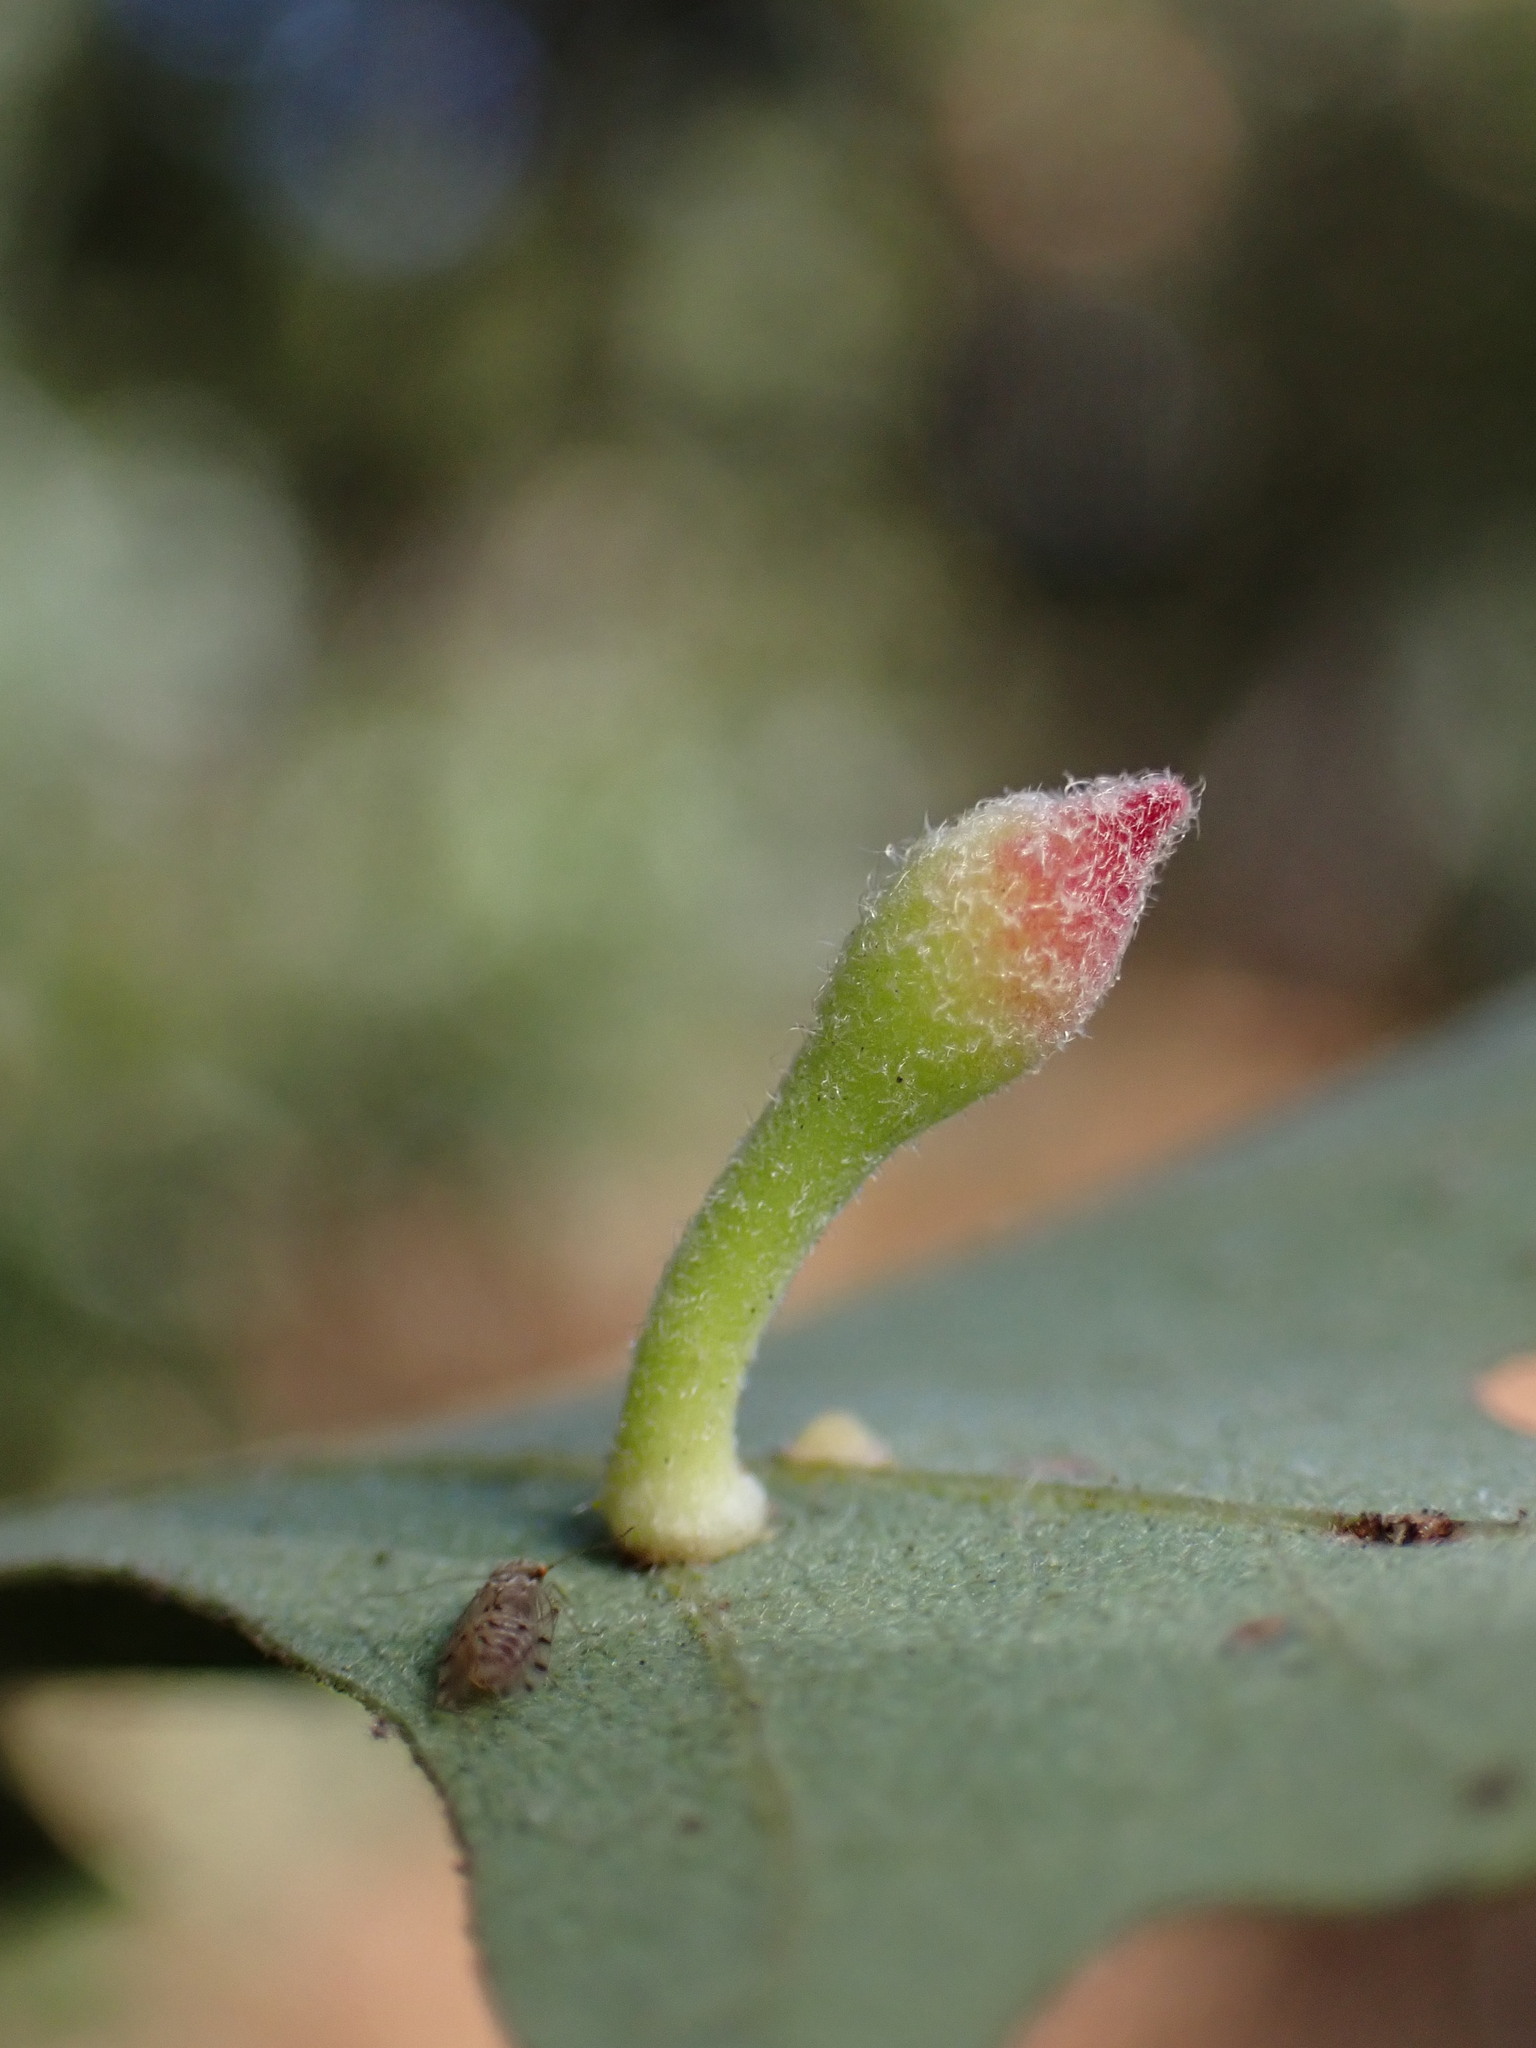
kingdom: Animalia
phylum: Arthropoda
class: Insecta
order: Hymenoptera
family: Cynipidae
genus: Atrusca
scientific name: Atrusca
